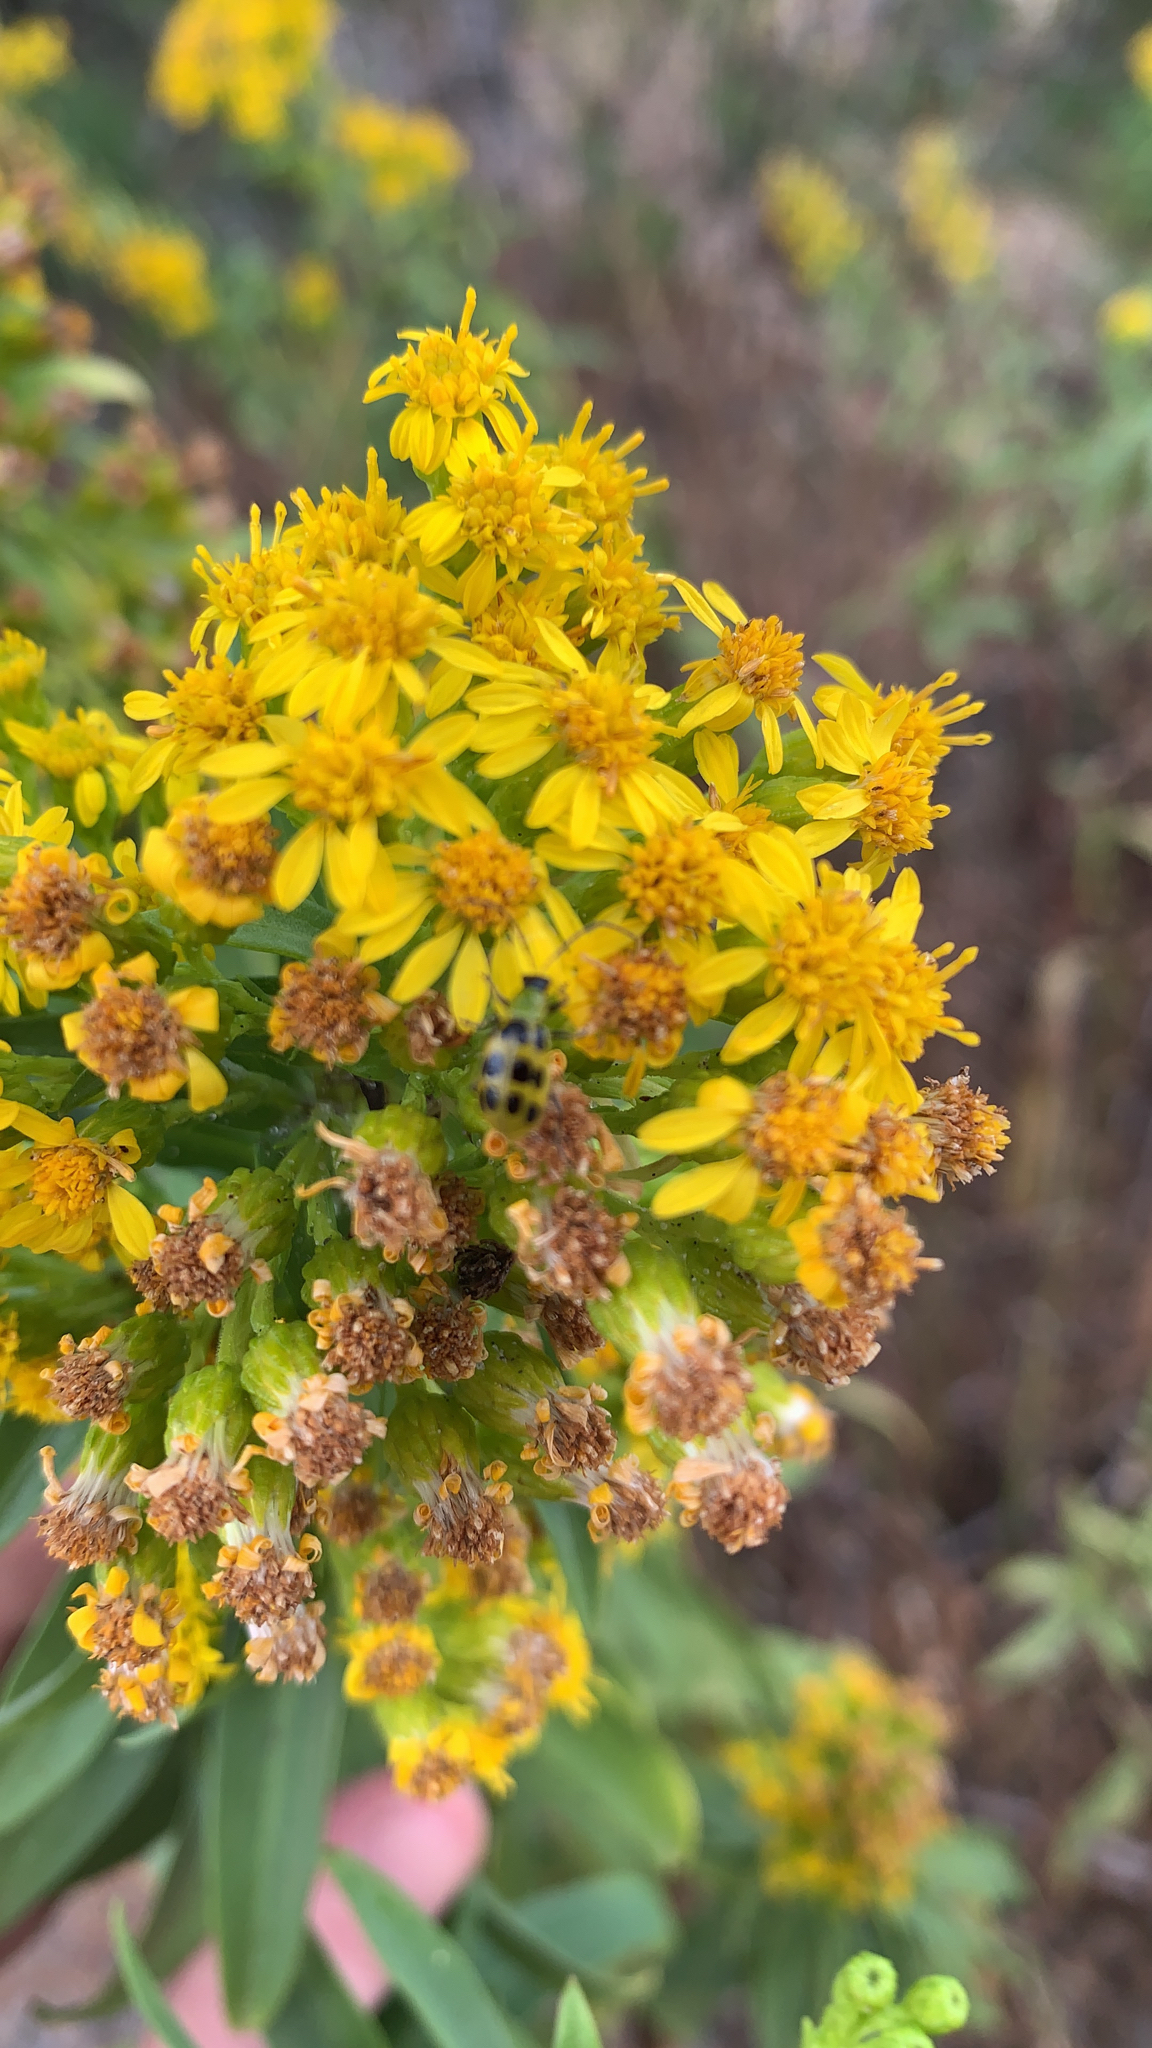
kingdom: Animalia
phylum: Arthropoda
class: Insecta
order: Coleoptera
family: Chrysomelidae
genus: Diabrotica
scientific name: Diabrotica undecimpunctata
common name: Spotted cucumber beetle
